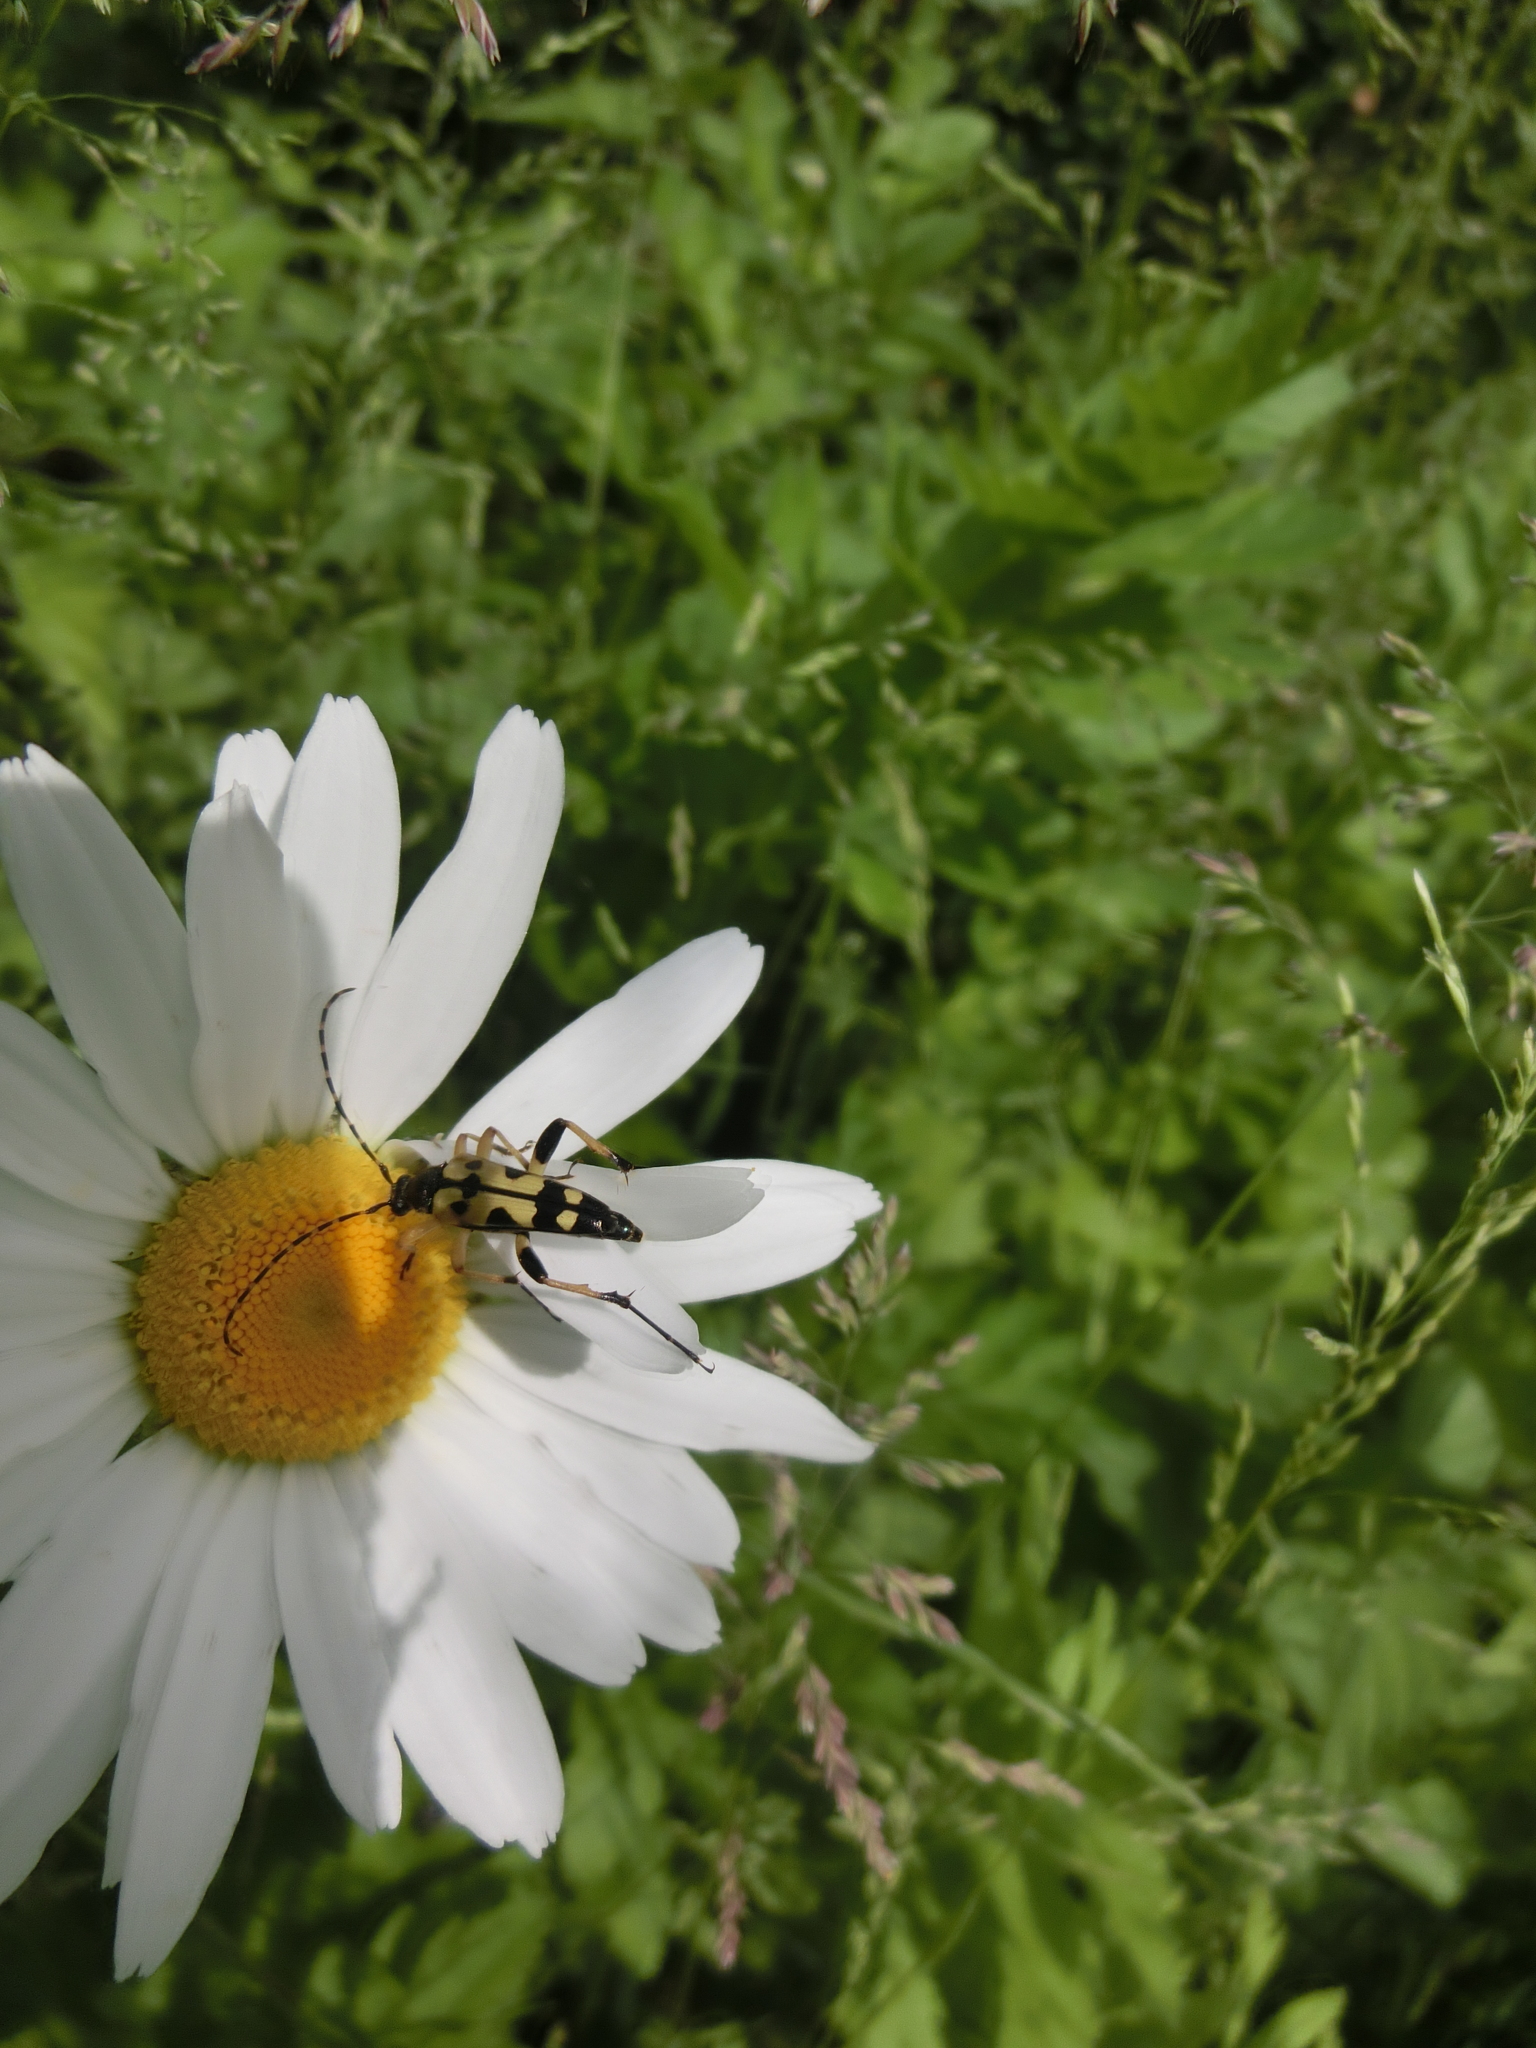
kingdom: Animalia
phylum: Arthropoda
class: Insecta
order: Coleoptera
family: Cerambycidae
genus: Rutpela
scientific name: Rutpela maculata
